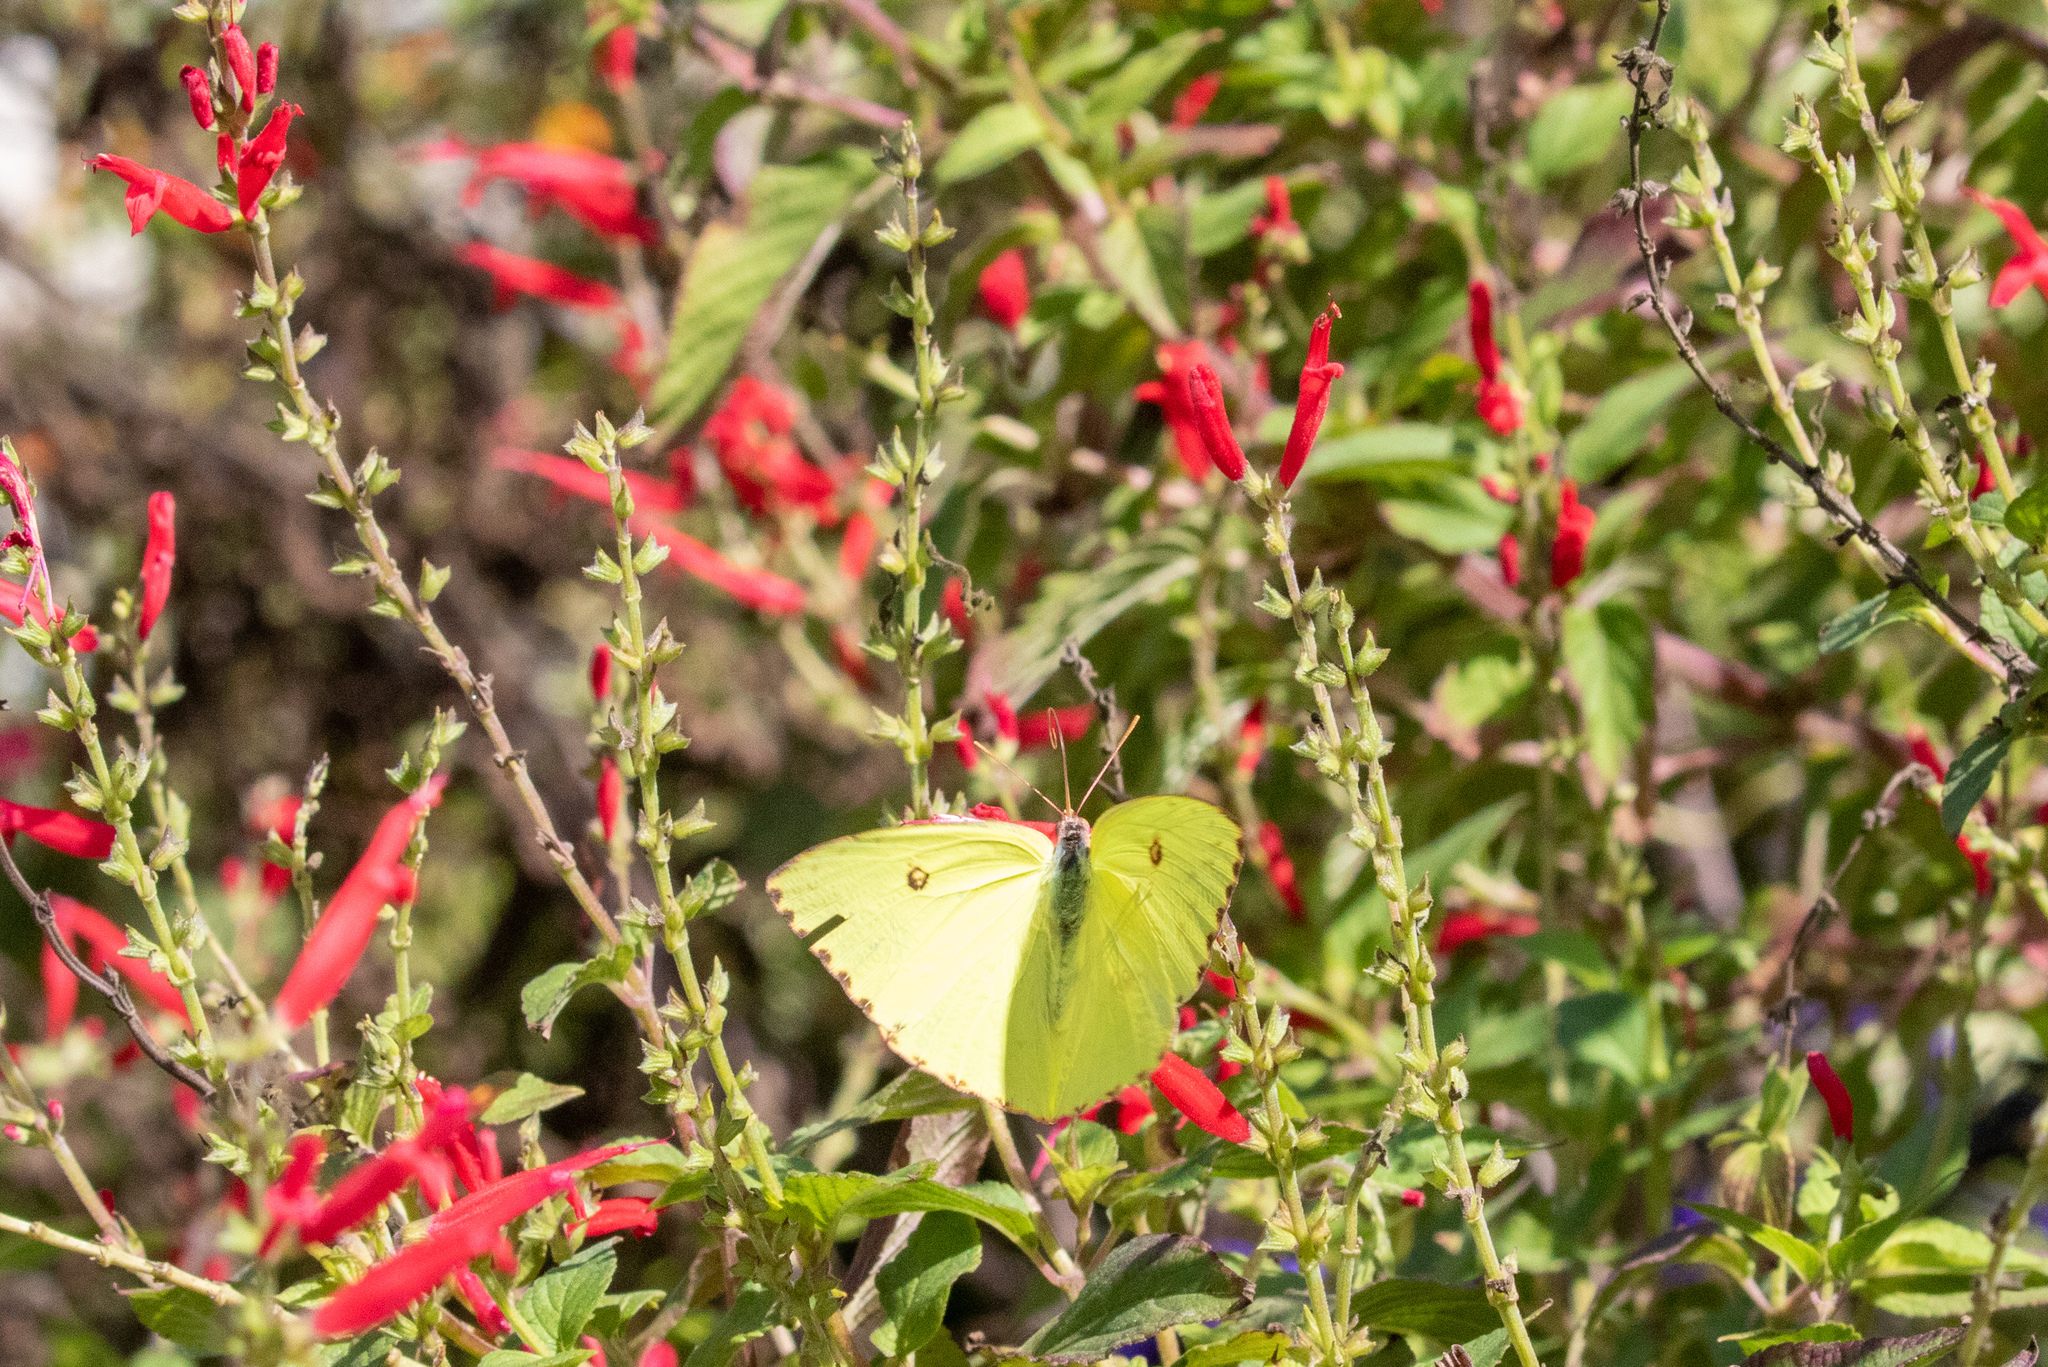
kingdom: Animalia
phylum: Arthropoda
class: Insecta
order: Lepidoptera
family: Pieridae
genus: Phoebis
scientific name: Phoebis sennae
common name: Cloudless sulphur
